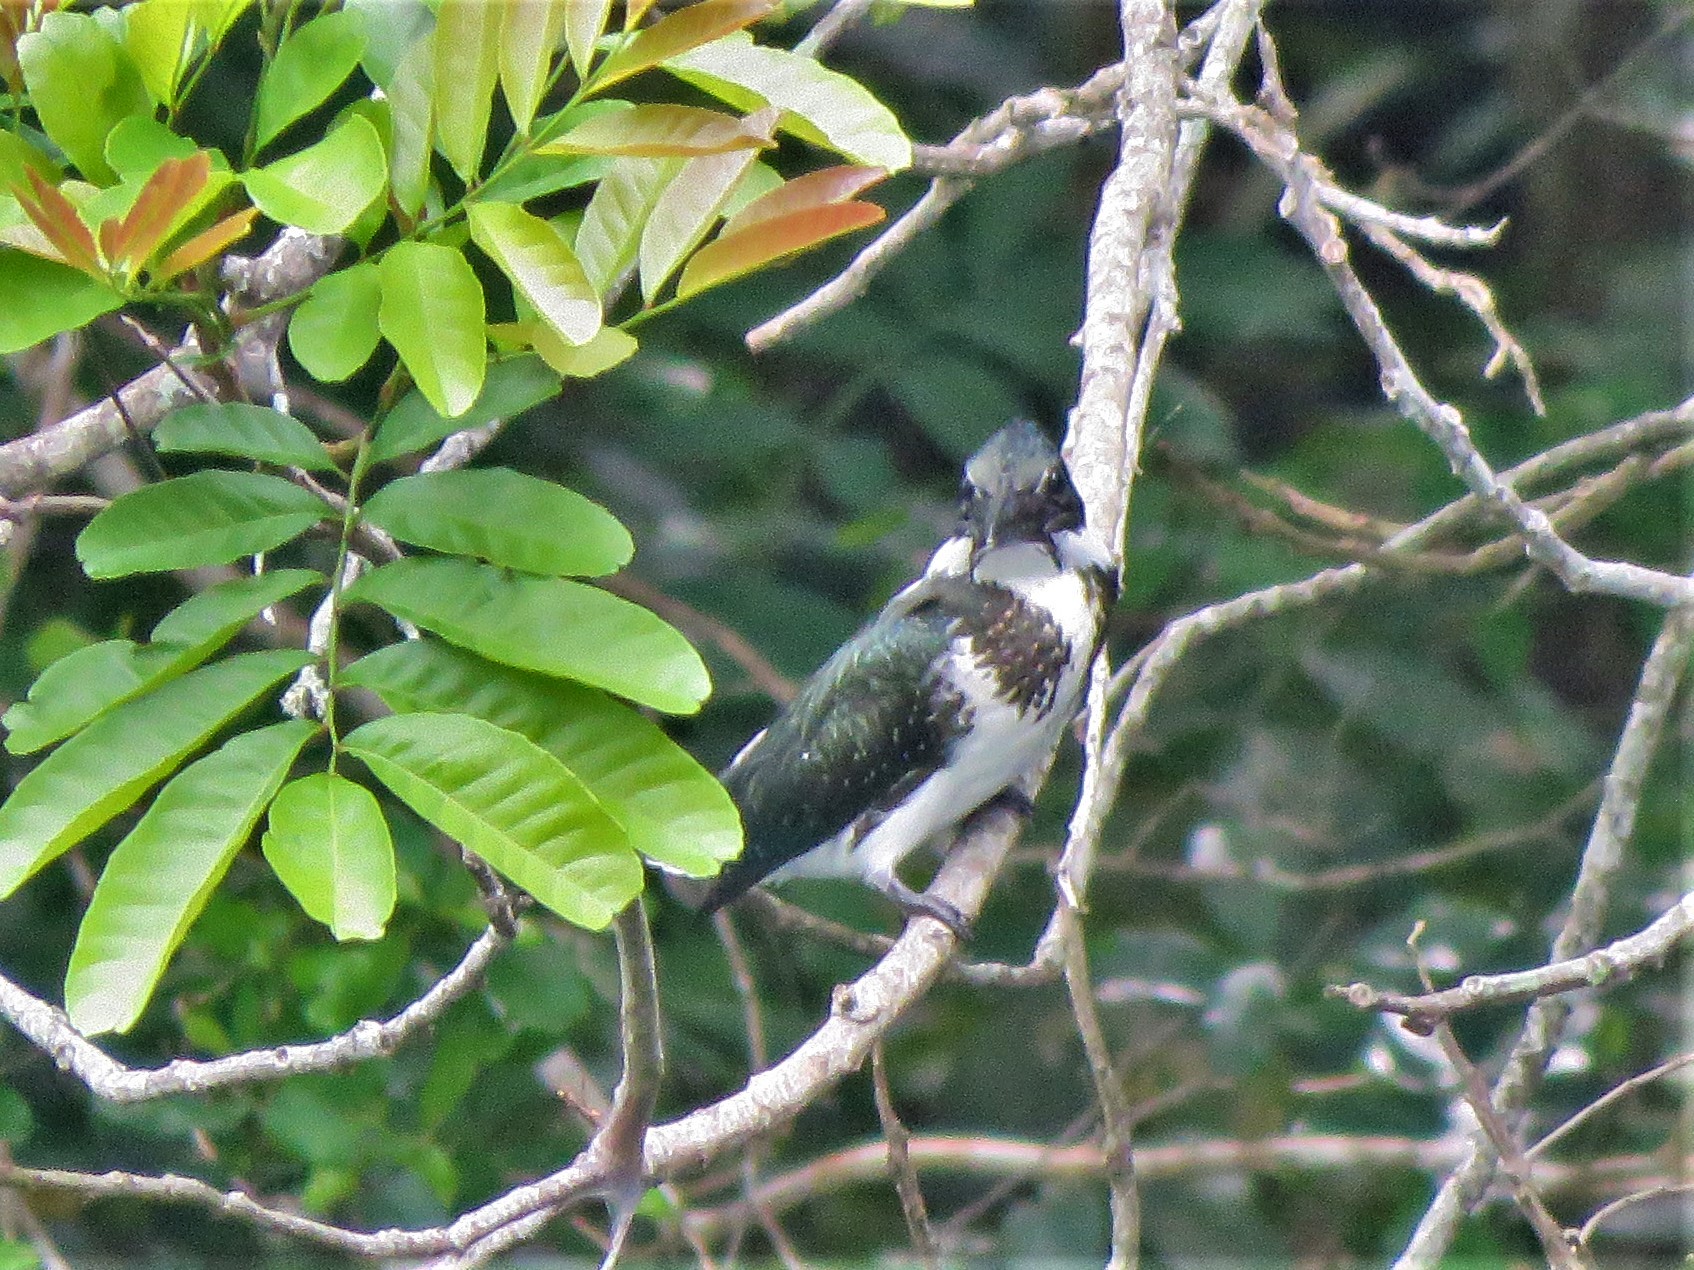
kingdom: Animalia
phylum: Chordata
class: Aves
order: Coraciiformes
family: Alcedinidae
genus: Chloroceryle
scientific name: Chloroceryle amazona
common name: Amazon kingfisher
